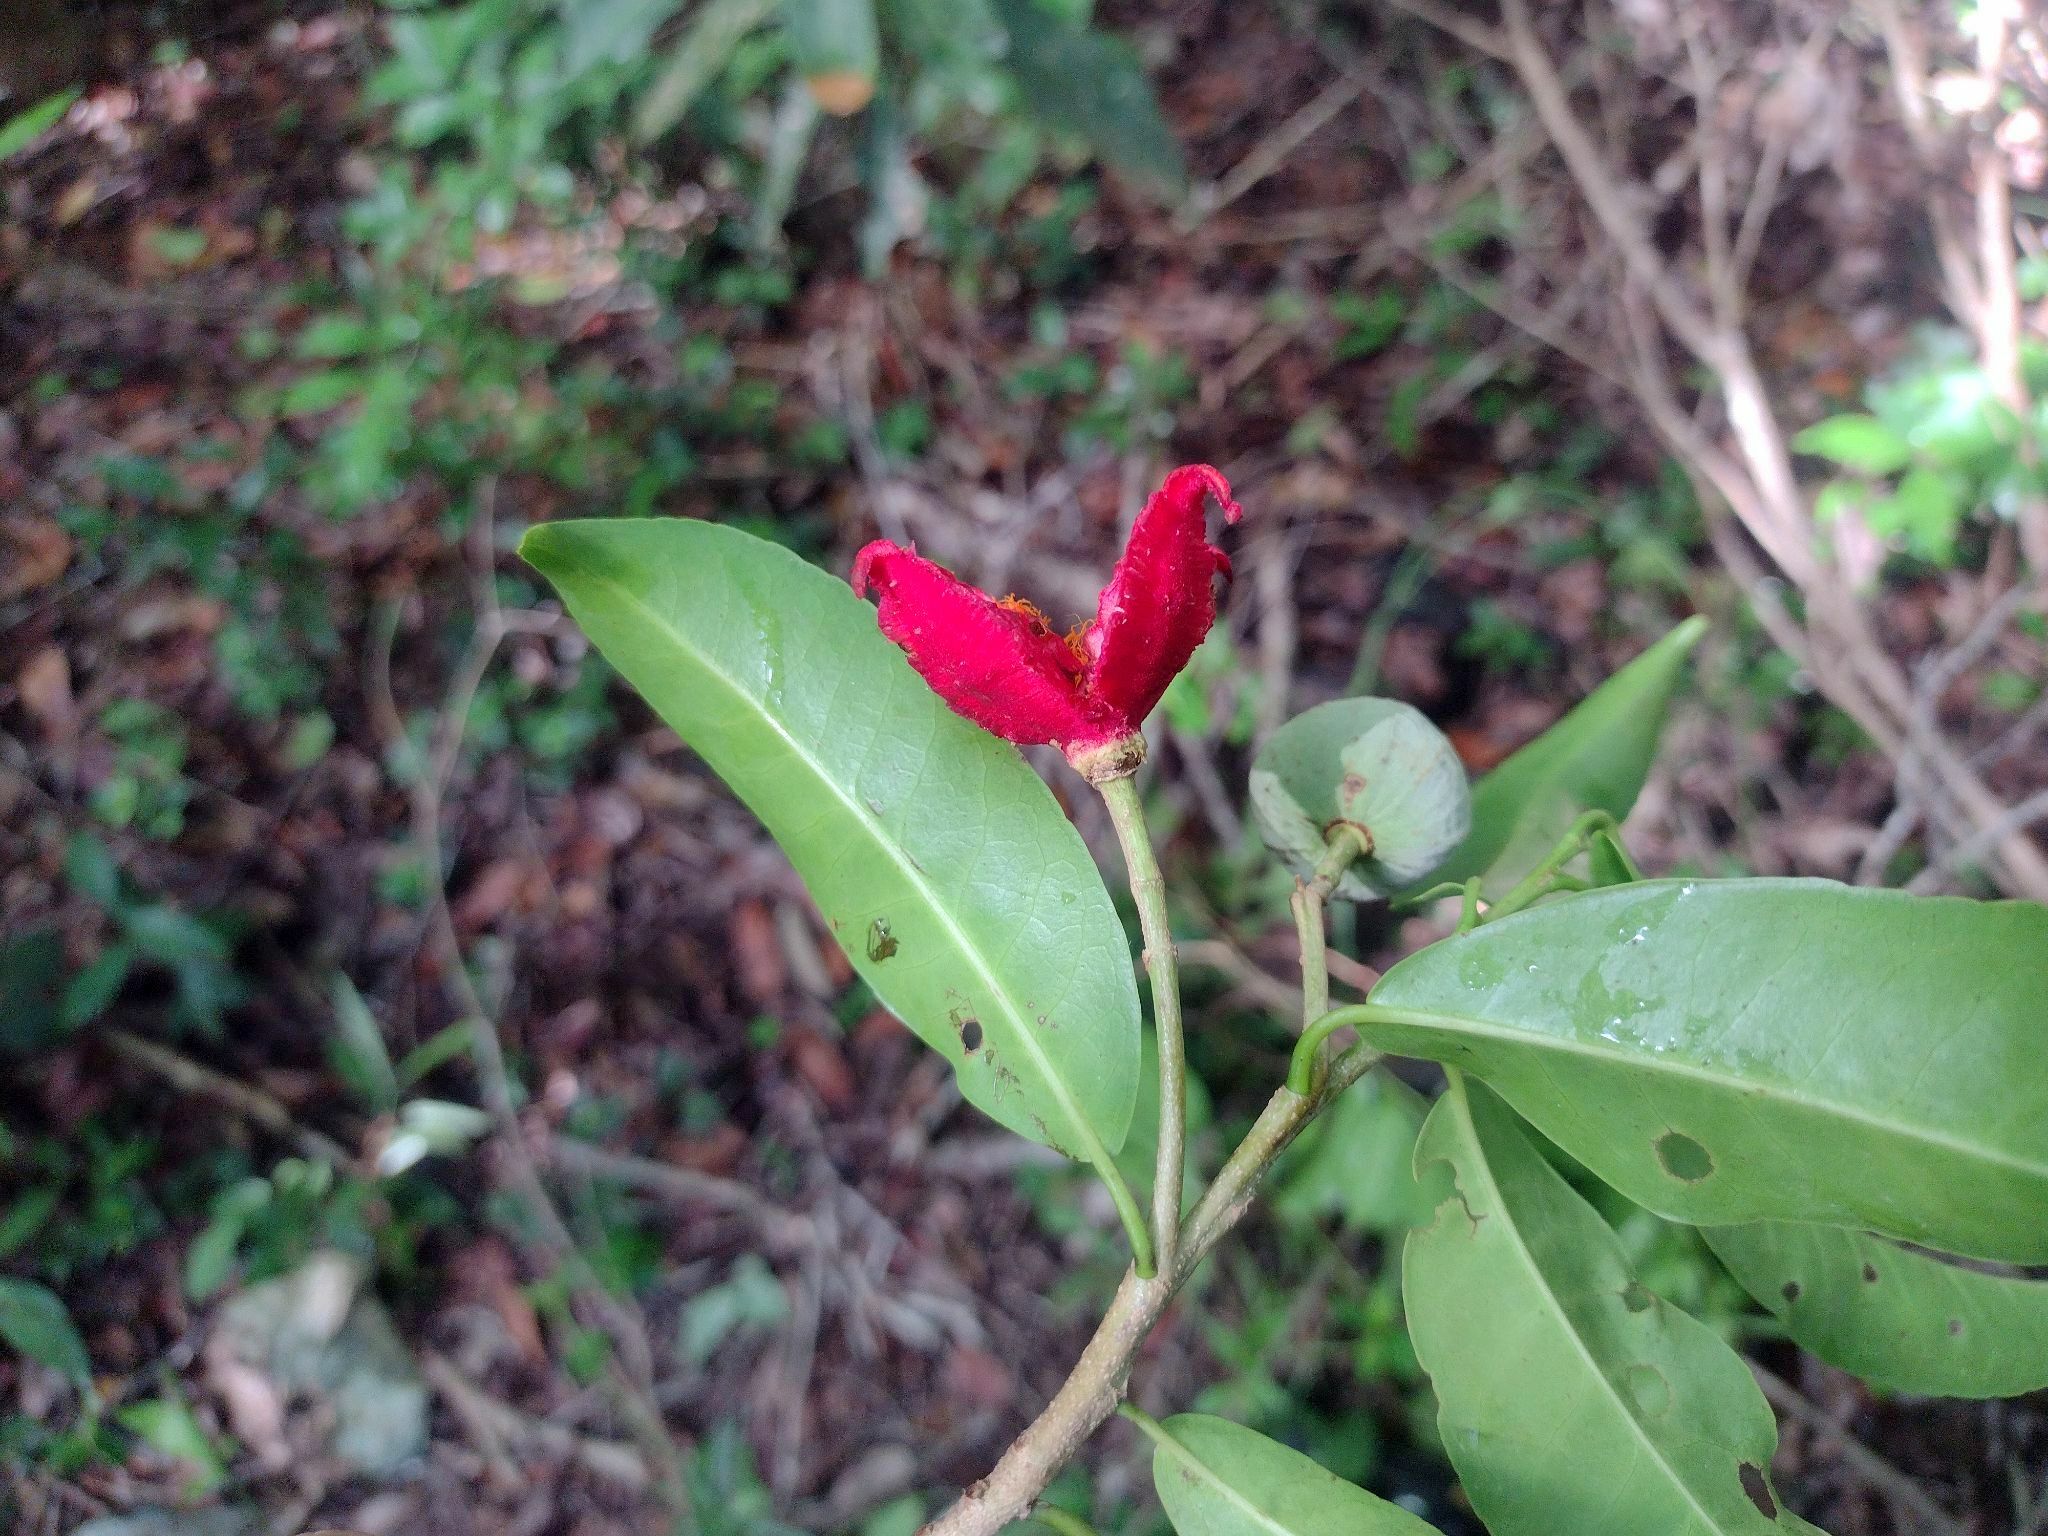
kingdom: Plantae
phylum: Tracheophyta
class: Magnoliopsida
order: Malpighiales
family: Salicaceae
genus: Casearia
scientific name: Casearia thamnia
